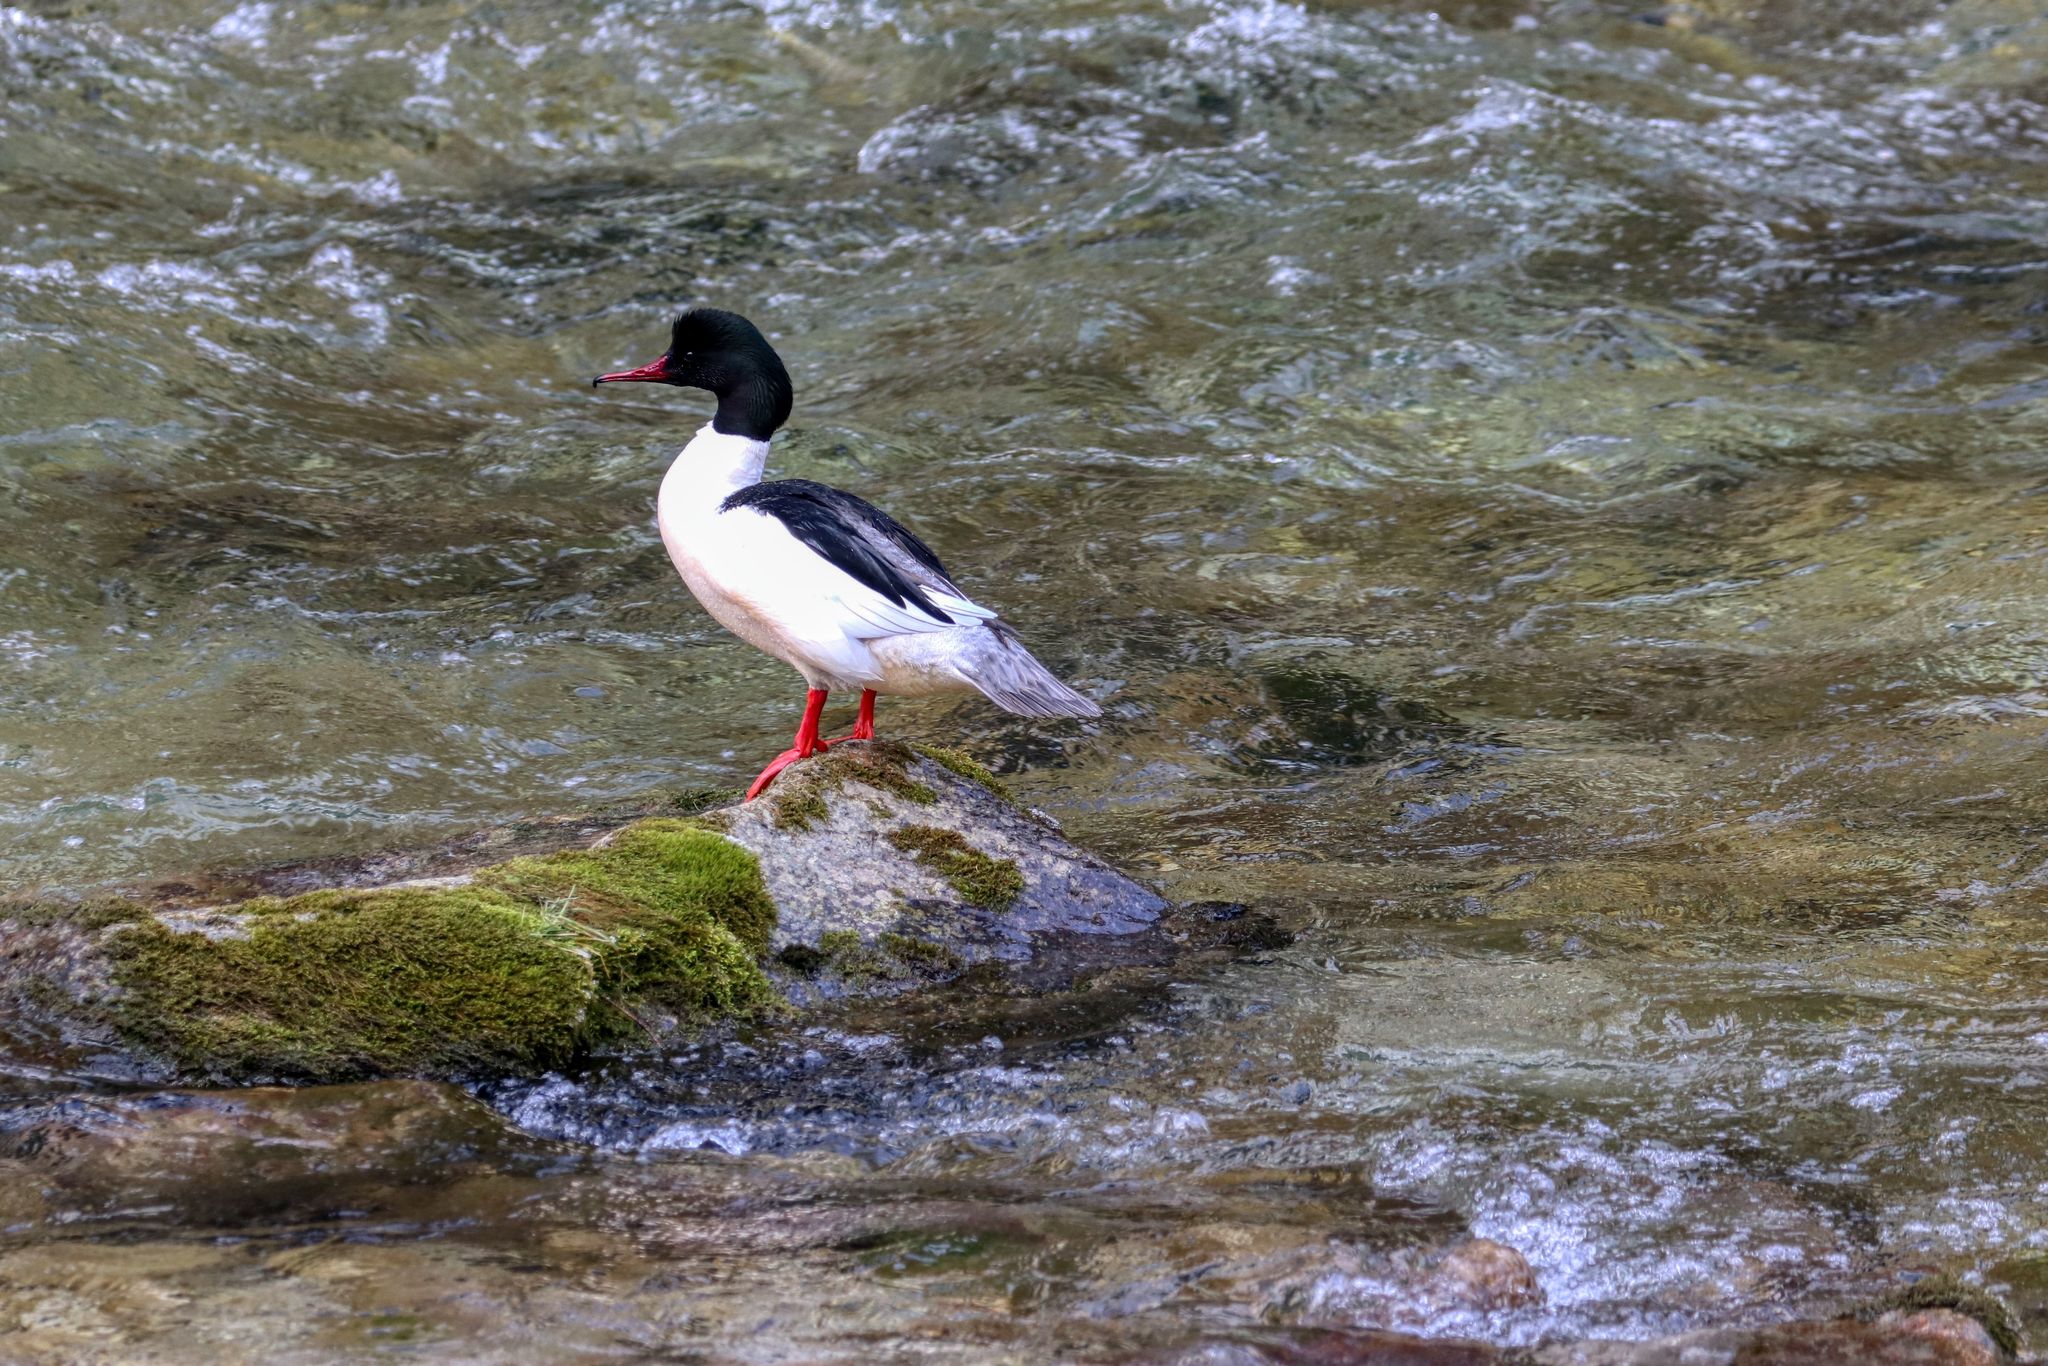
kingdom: Animalia
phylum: Chordata
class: Aves
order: Anseriformes
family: Anatidae
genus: Mergus
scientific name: Mergus merganser
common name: Common merganser
